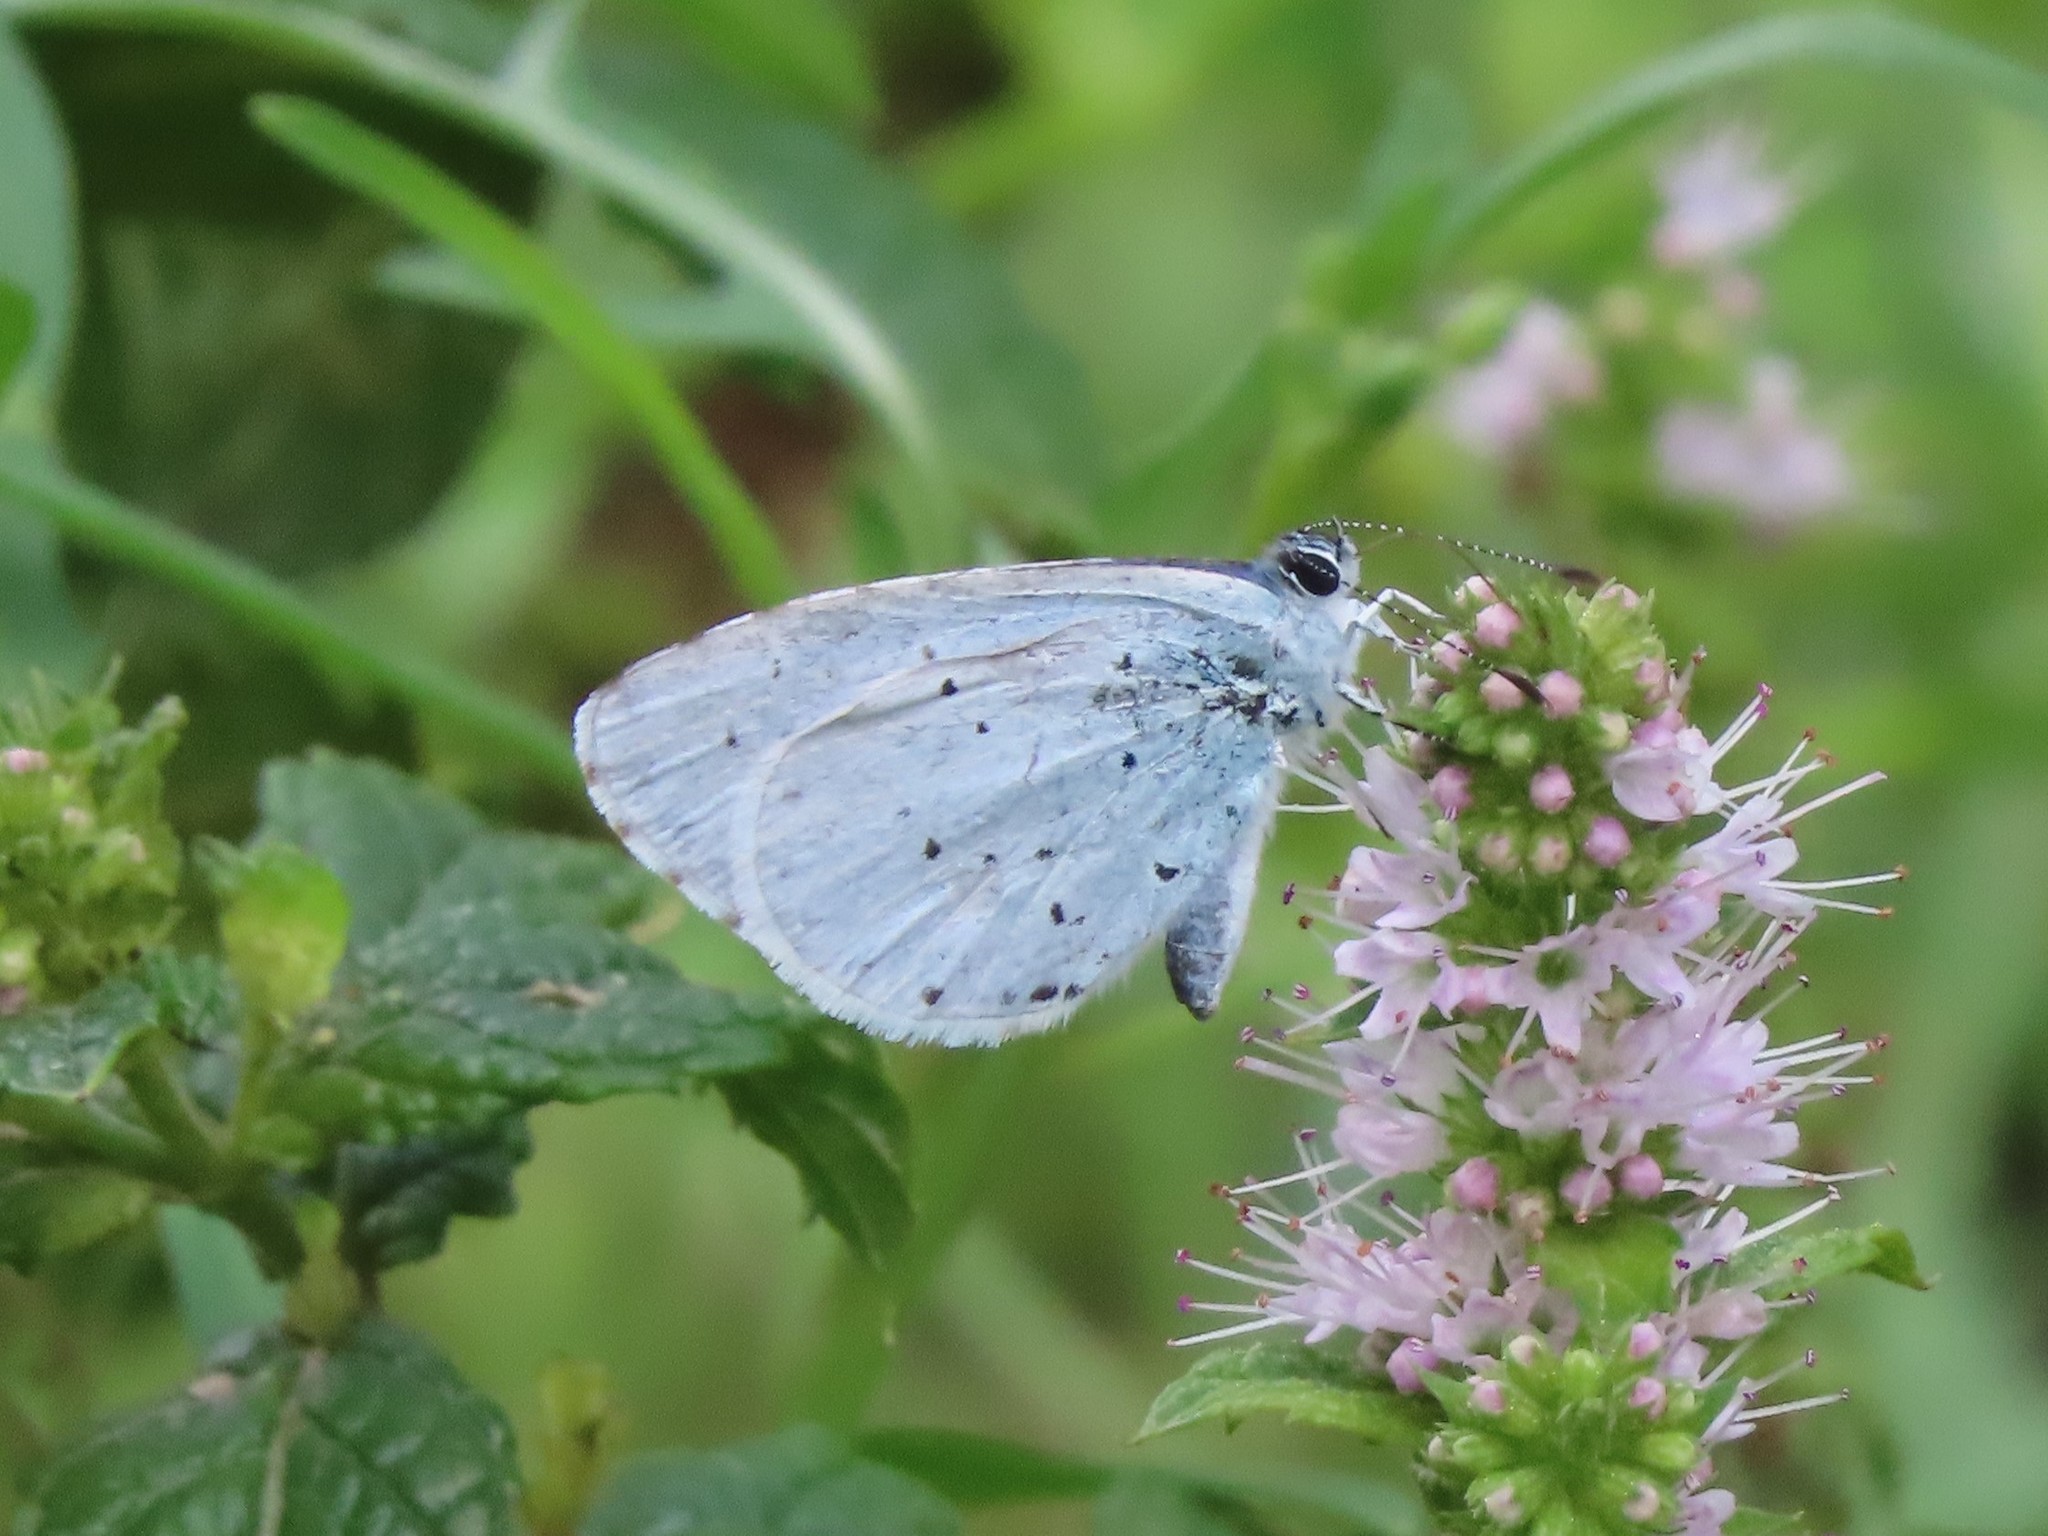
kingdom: Animalia
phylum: Arthropoda
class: Insecta
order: Lepidoptera
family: Lycaenidae
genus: Celastrina
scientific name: Celastrina argiolus
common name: Holly blue
